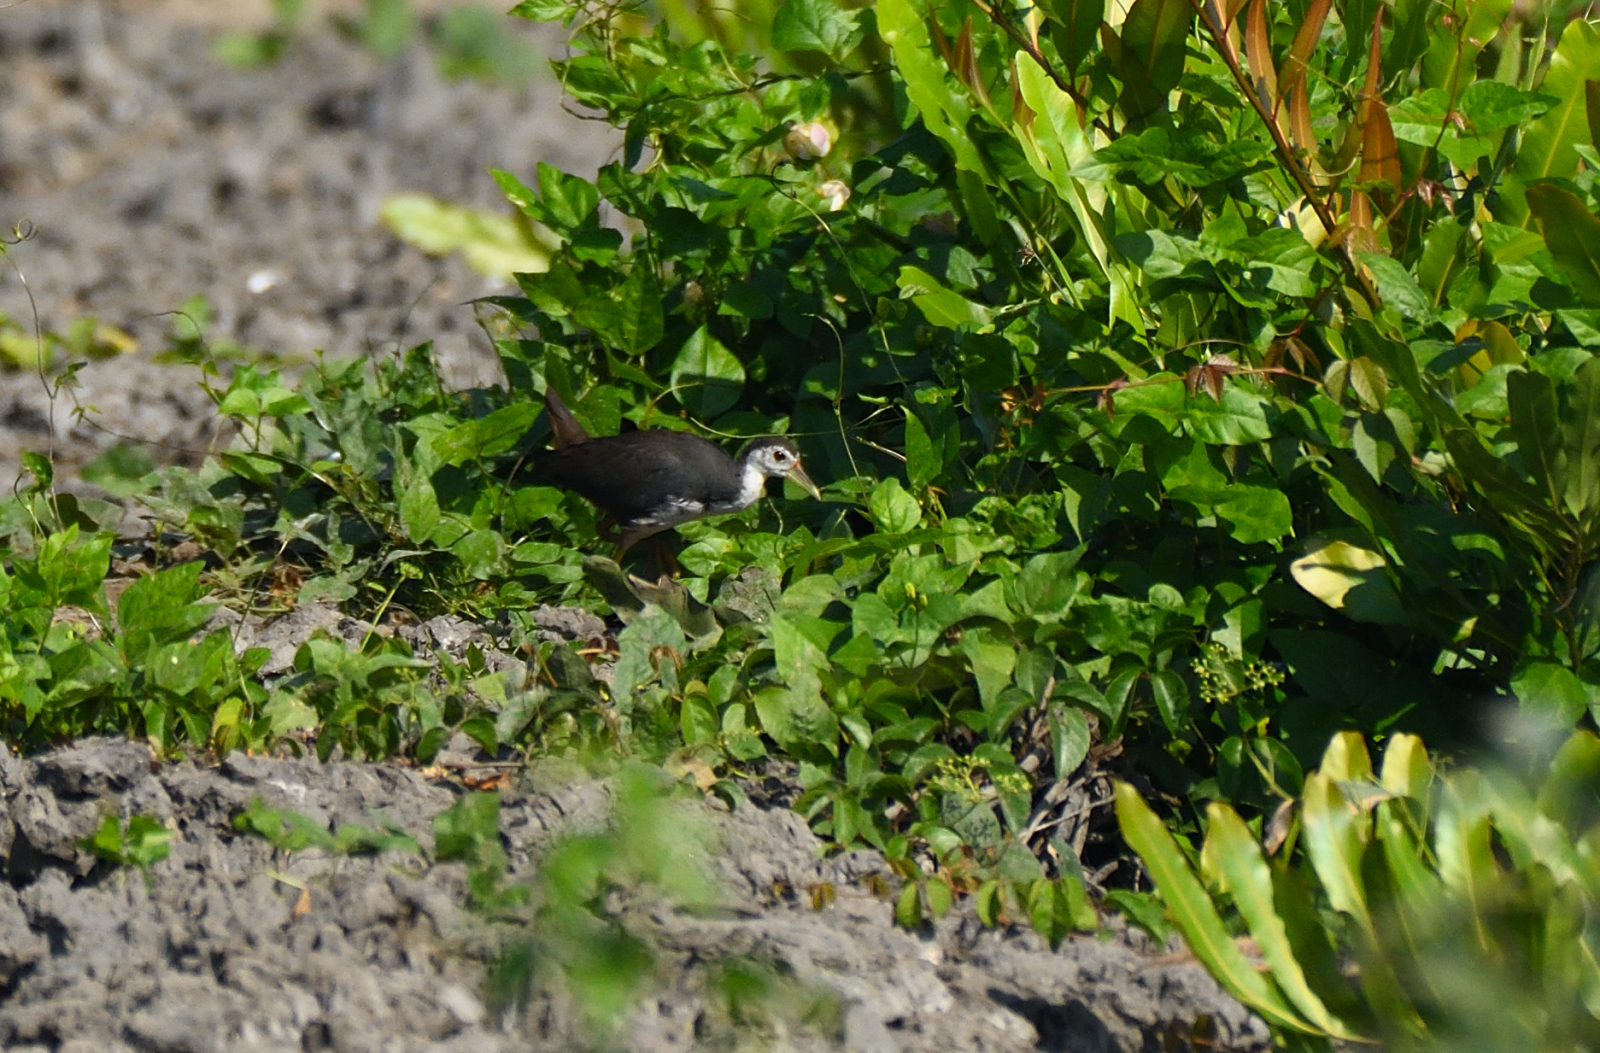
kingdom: Animalia
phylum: Chordata
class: Aves
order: Gruiformes
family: Rallidae
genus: Amaurornis
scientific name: Amaurornis phoenicurus
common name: White-breasted waterhen
